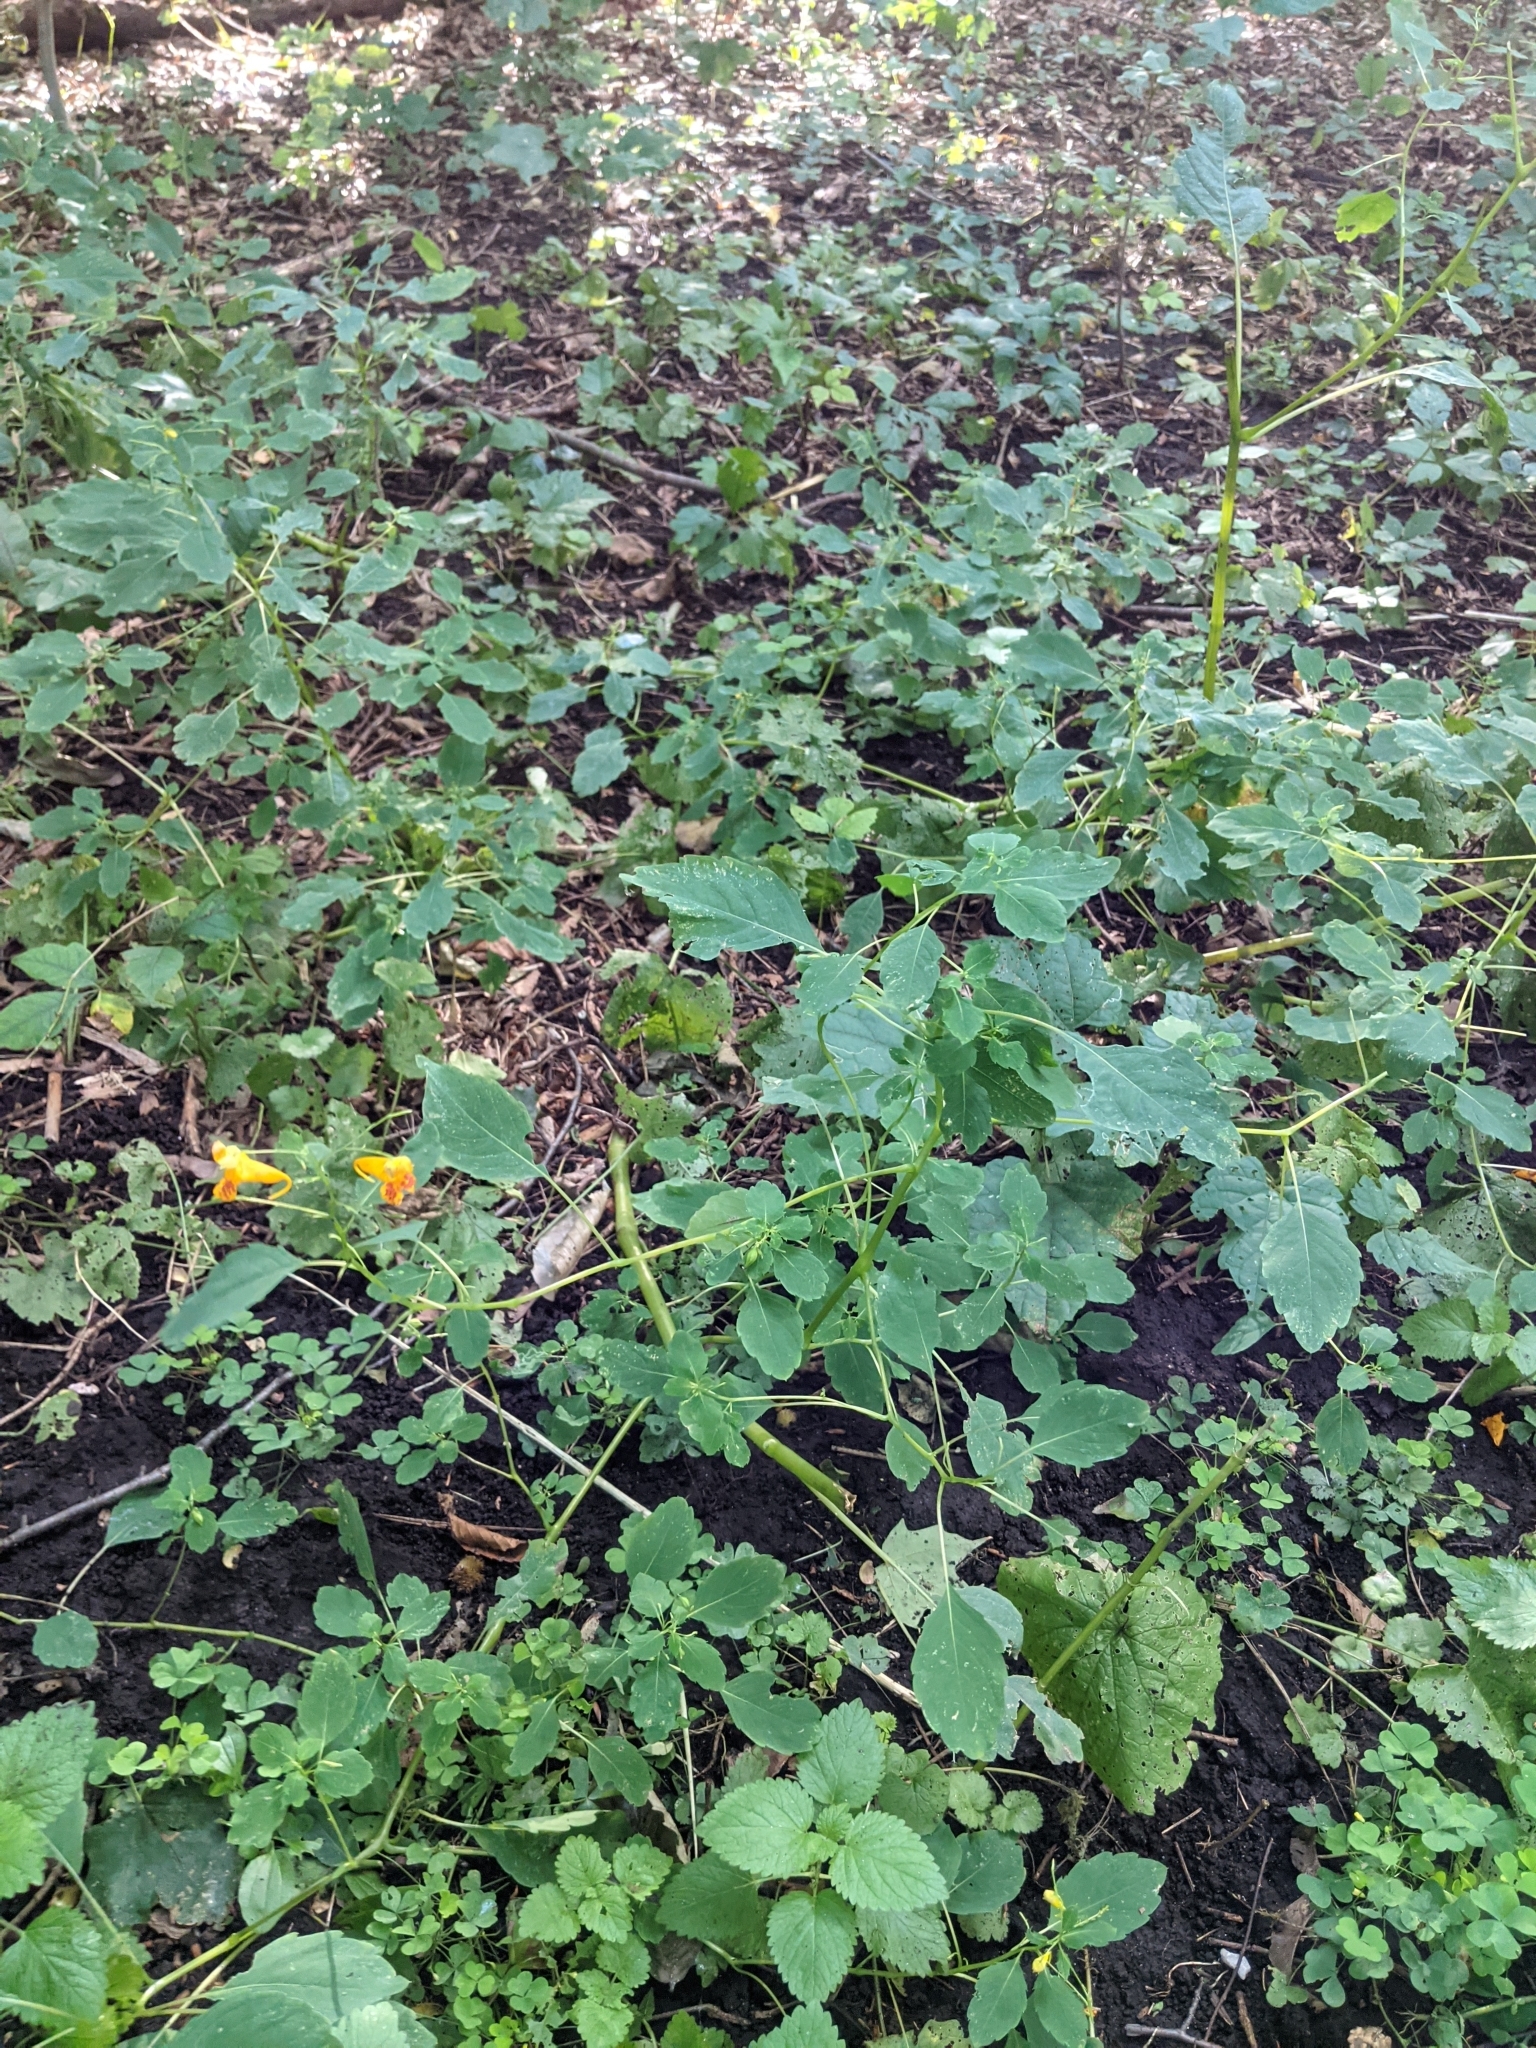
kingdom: Plantae
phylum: Tracheophyta
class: Magnoliopsida
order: Ericales
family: Balsaminaceae
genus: Impatiens
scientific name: Impatiens capensis
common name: Orange balsam
